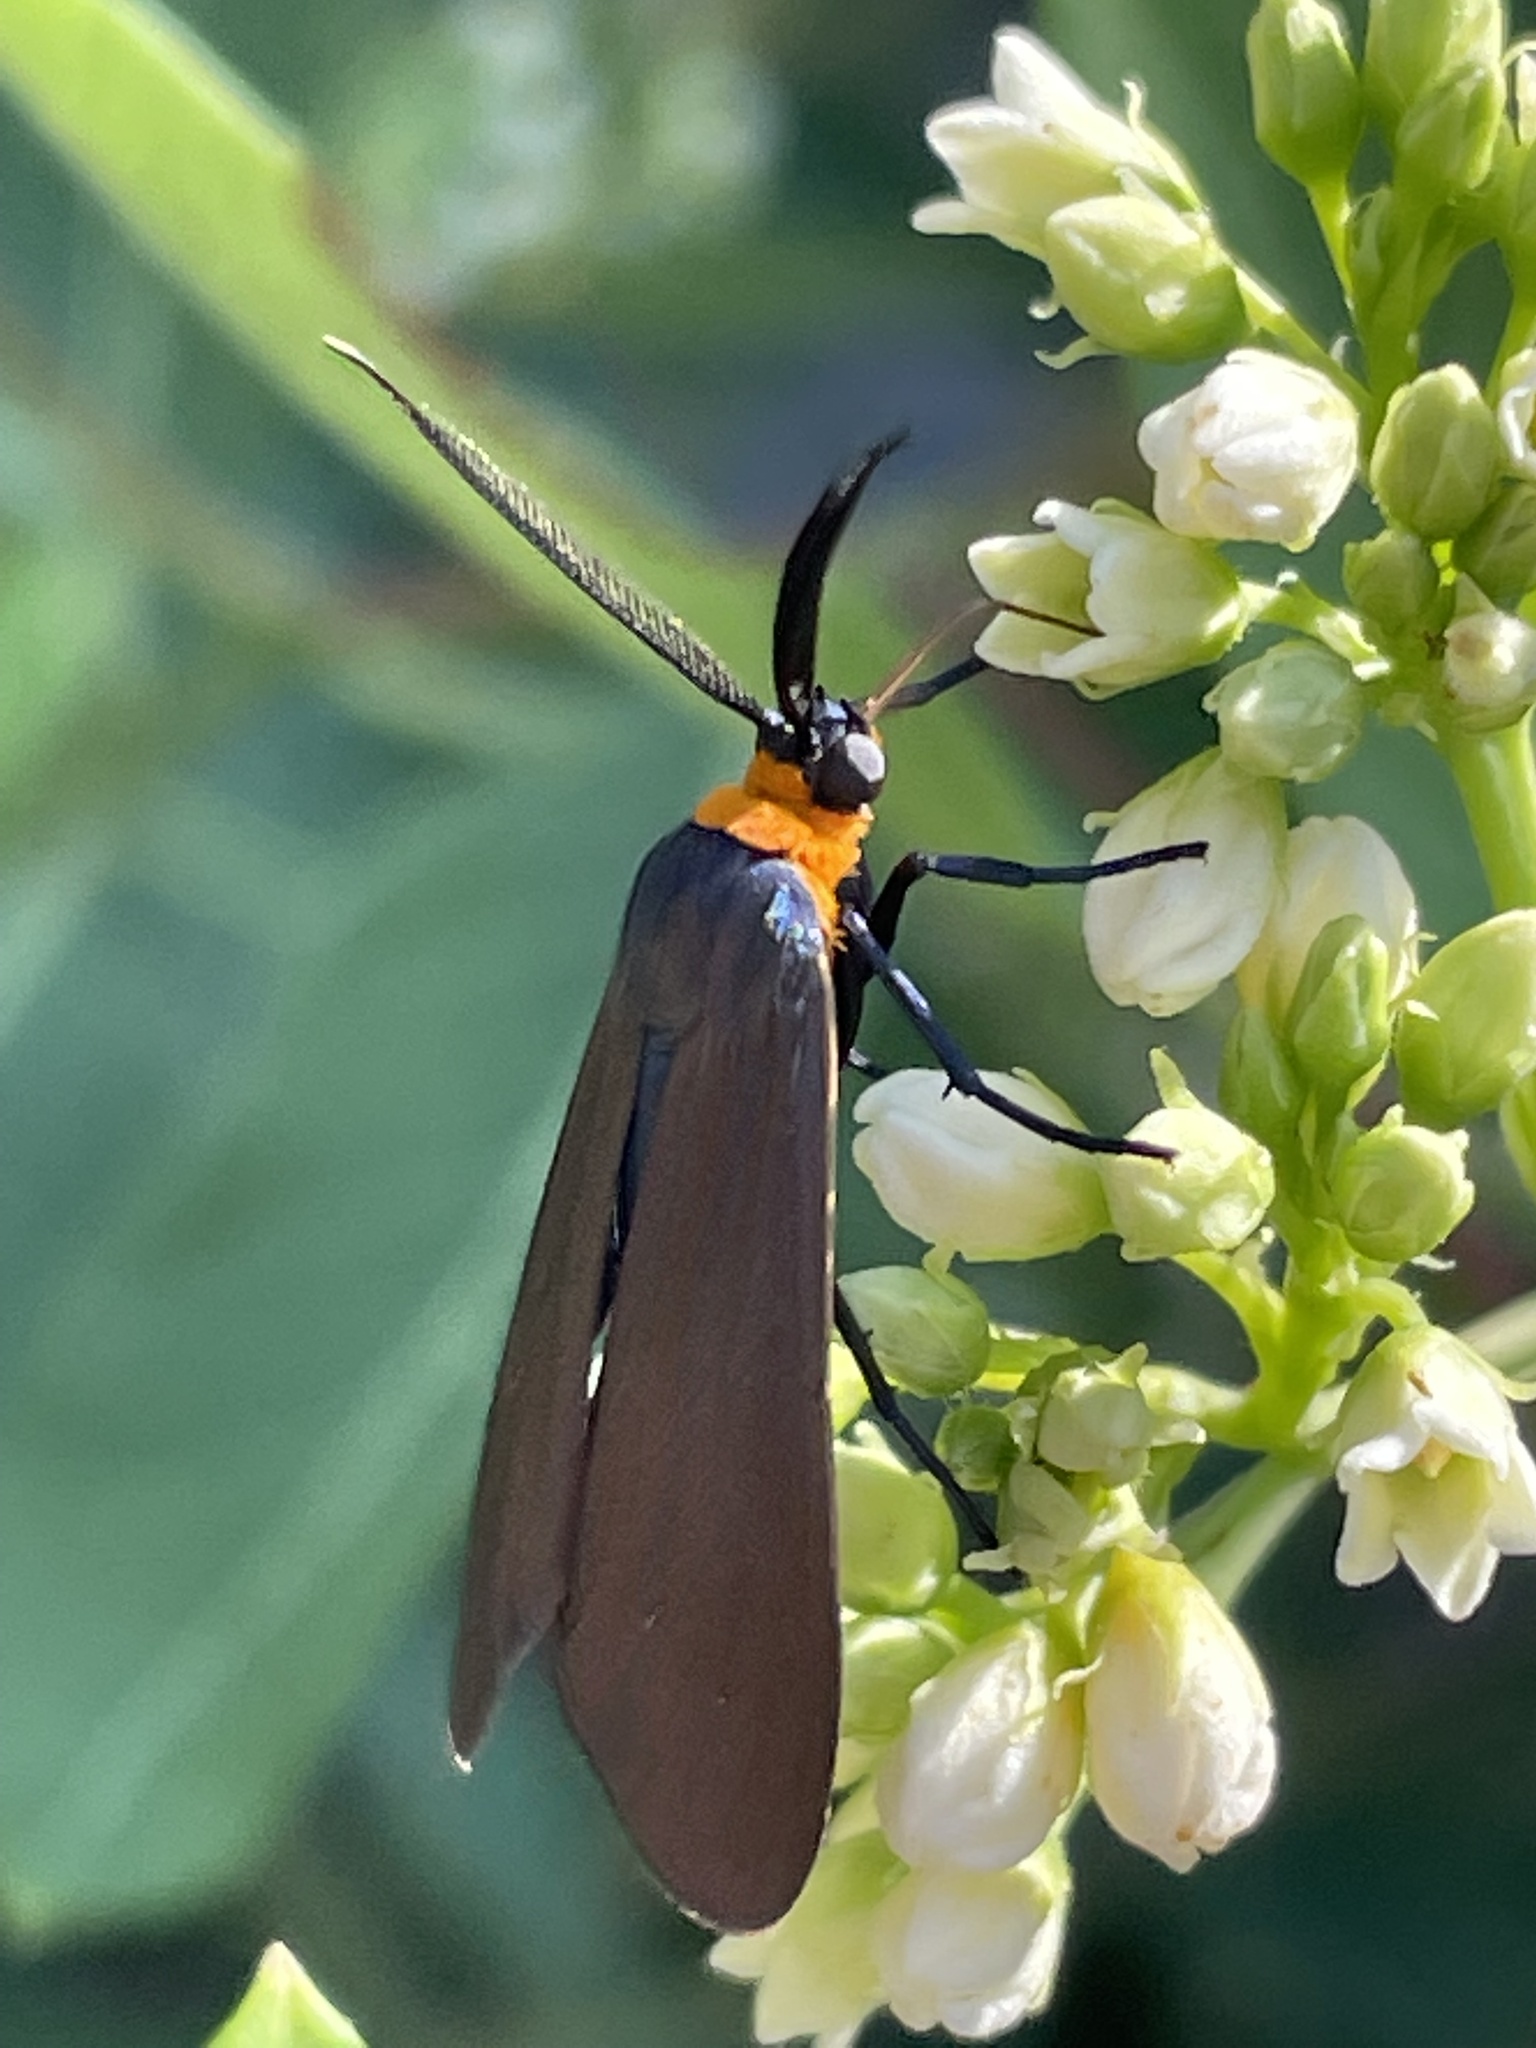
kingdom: Animalia
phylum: Arthropoda
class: Insecta
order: Lepidoptera
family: Erebidae
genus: Cisseps
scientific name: Cisseps fulvicollis
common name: Yellow-collared scape moth
